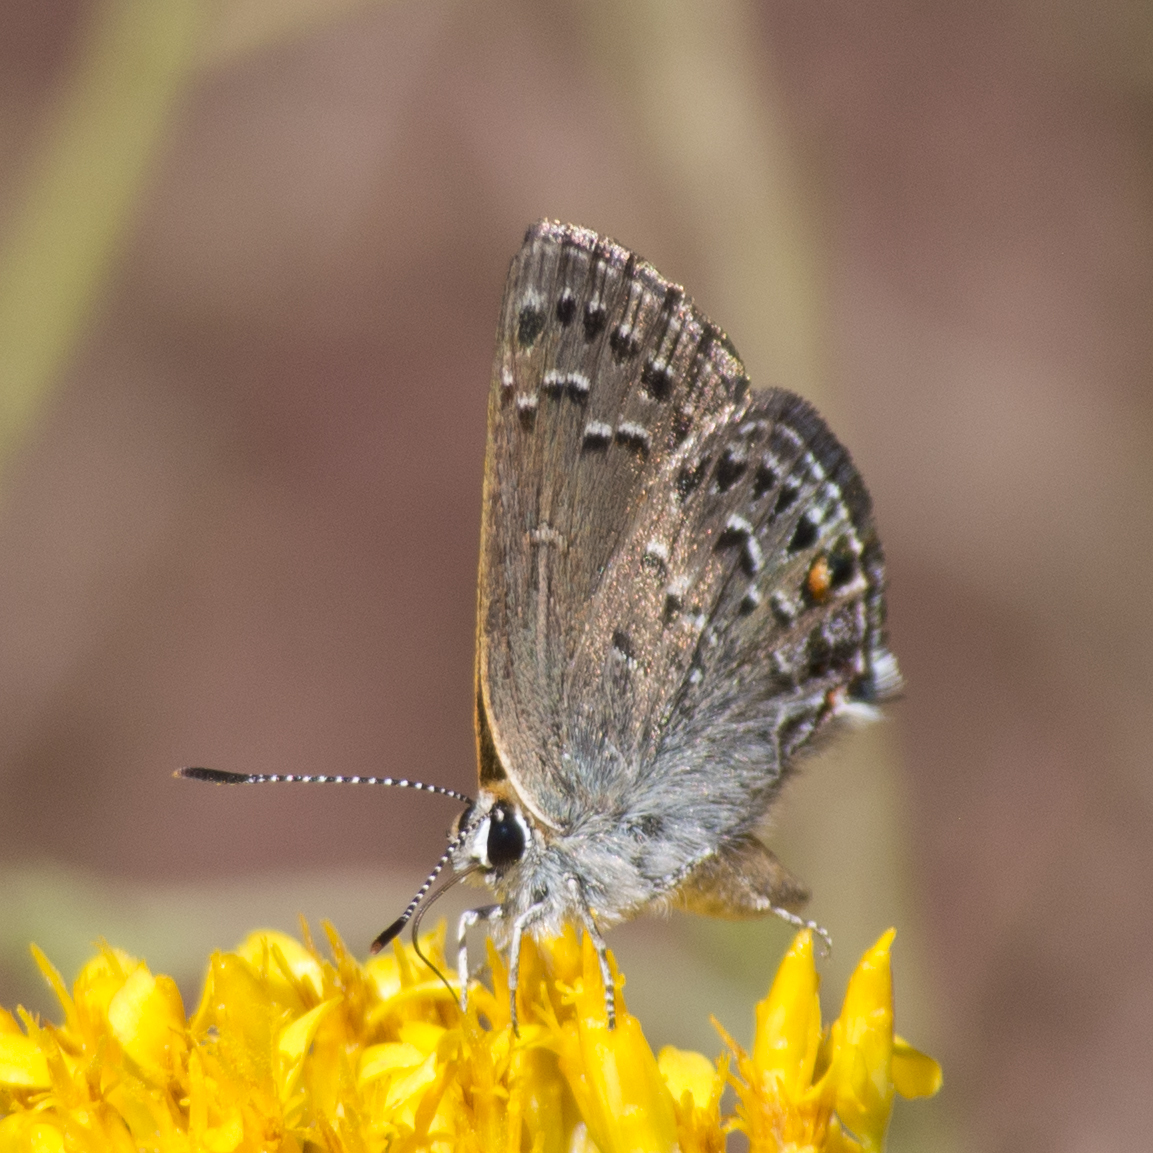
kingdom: Animalia
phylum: Arthropoda
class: Insecta
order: Lepidoptera
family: Lycaenidae
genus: Satyrium
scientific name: Satyrium behrii
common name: Behr's hairstreak
